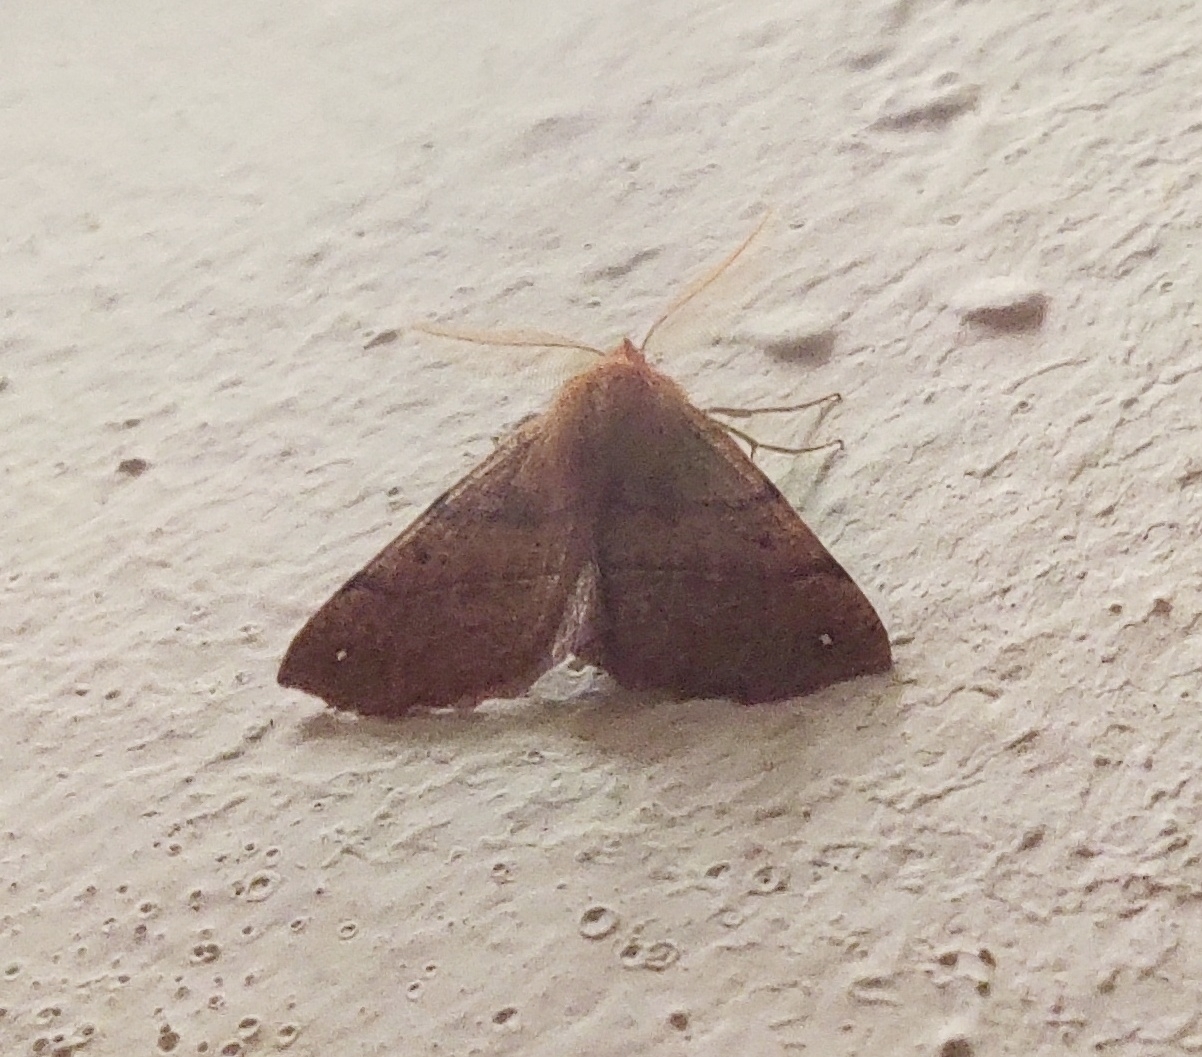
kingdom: Animalia
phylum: Arthropoda
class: Insecta
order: Lepidoptera
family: Geometridae
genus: Colotois
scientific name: Colotois pennaria
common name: Feathered thorn
